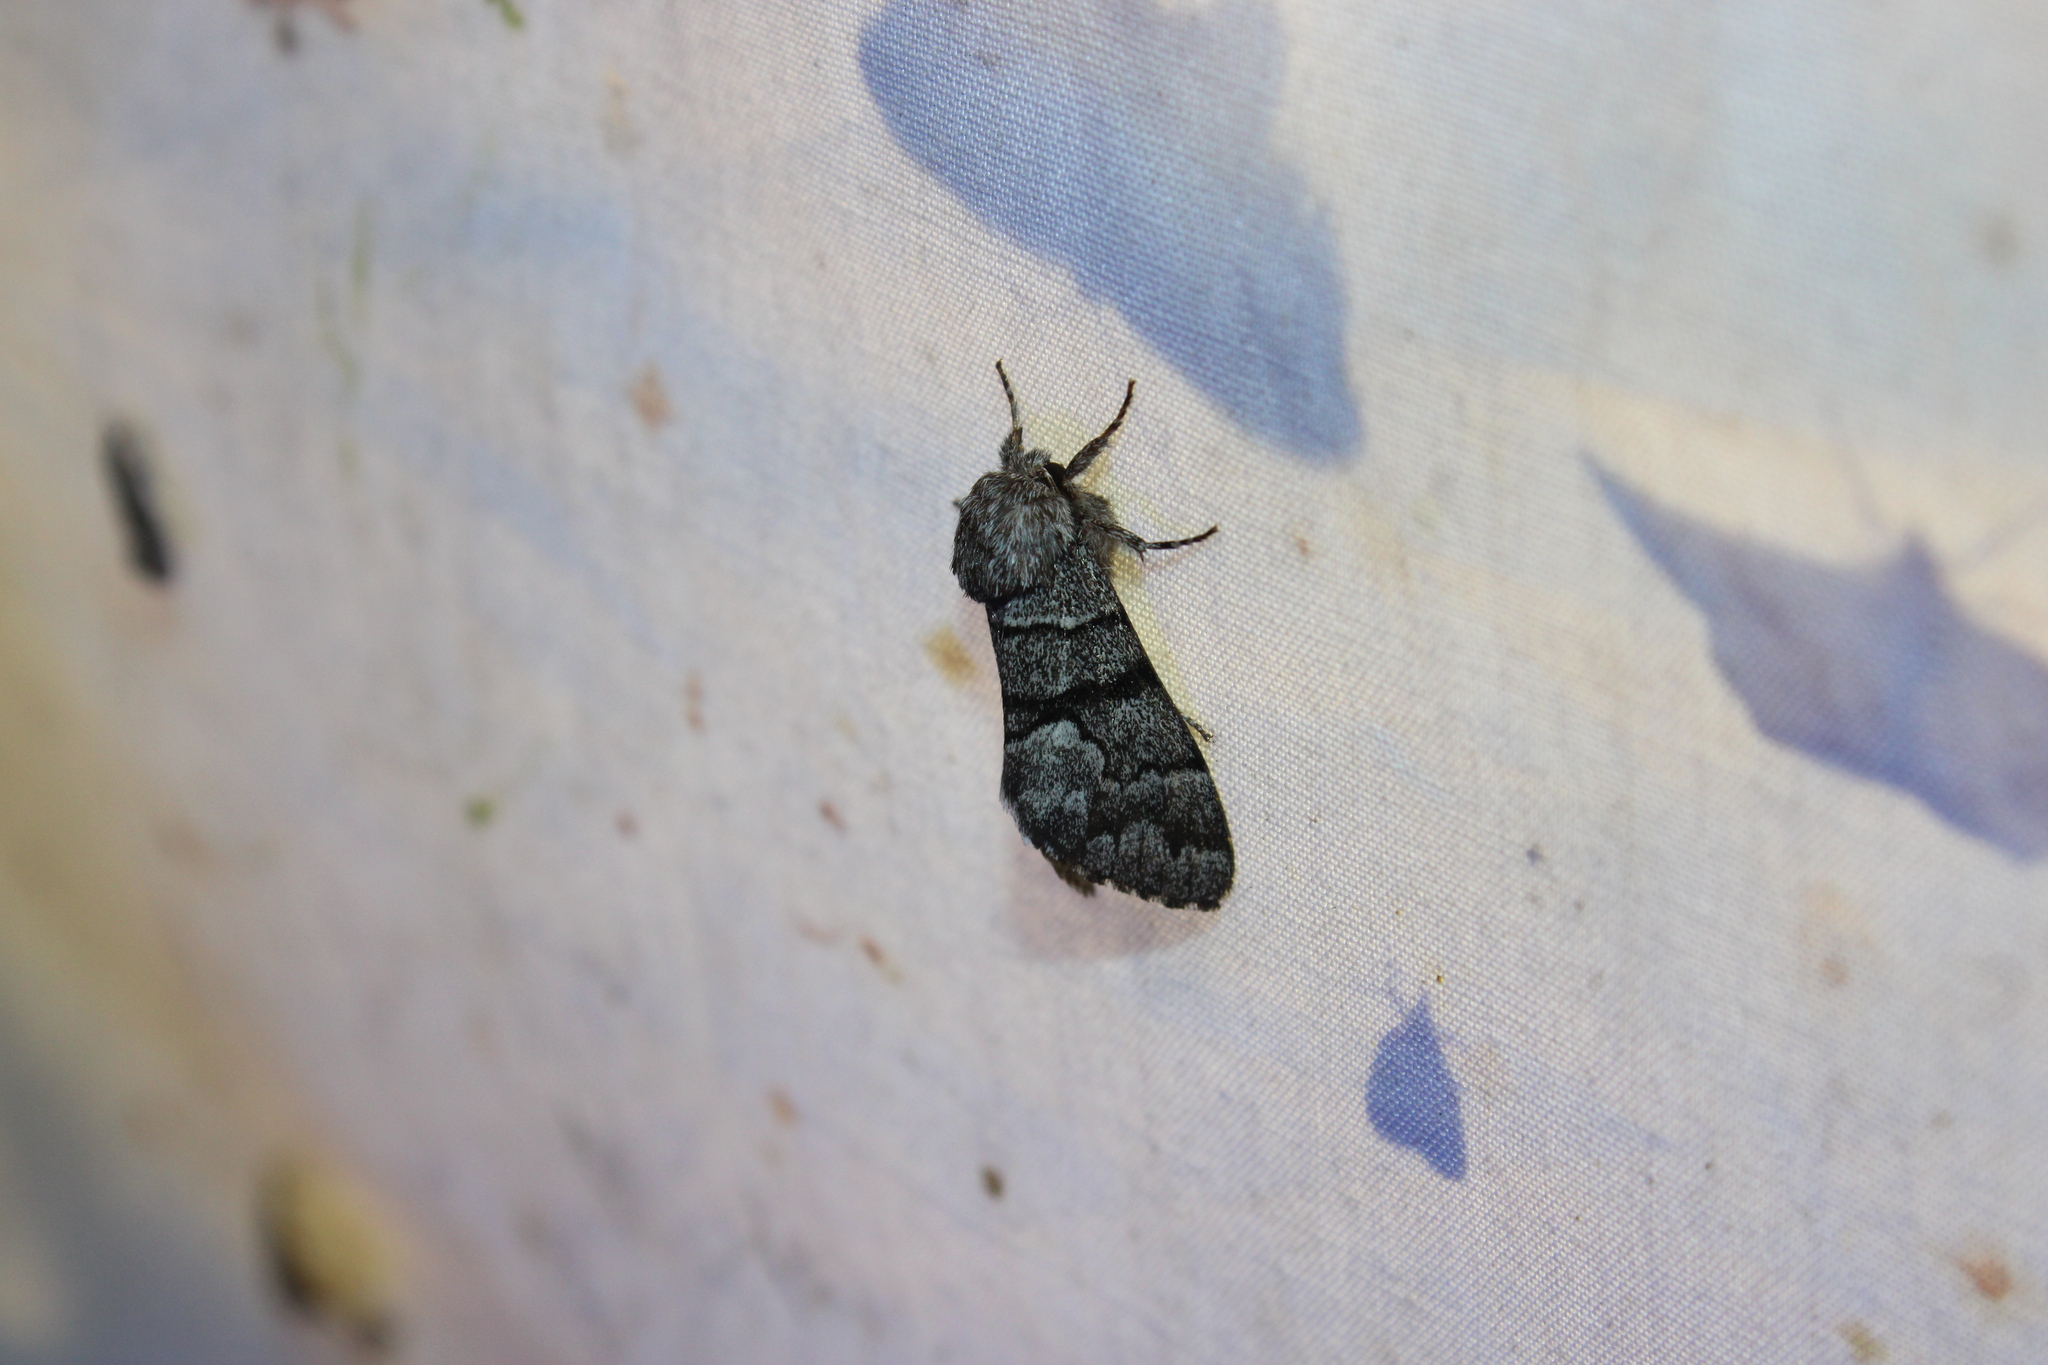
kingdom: Animalia
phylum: Arthropoda
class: Insecta
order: Lepidoptera
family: Noctuidae
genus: Panthea
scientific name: Panthea furcilla
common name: Eastern panthea moth
